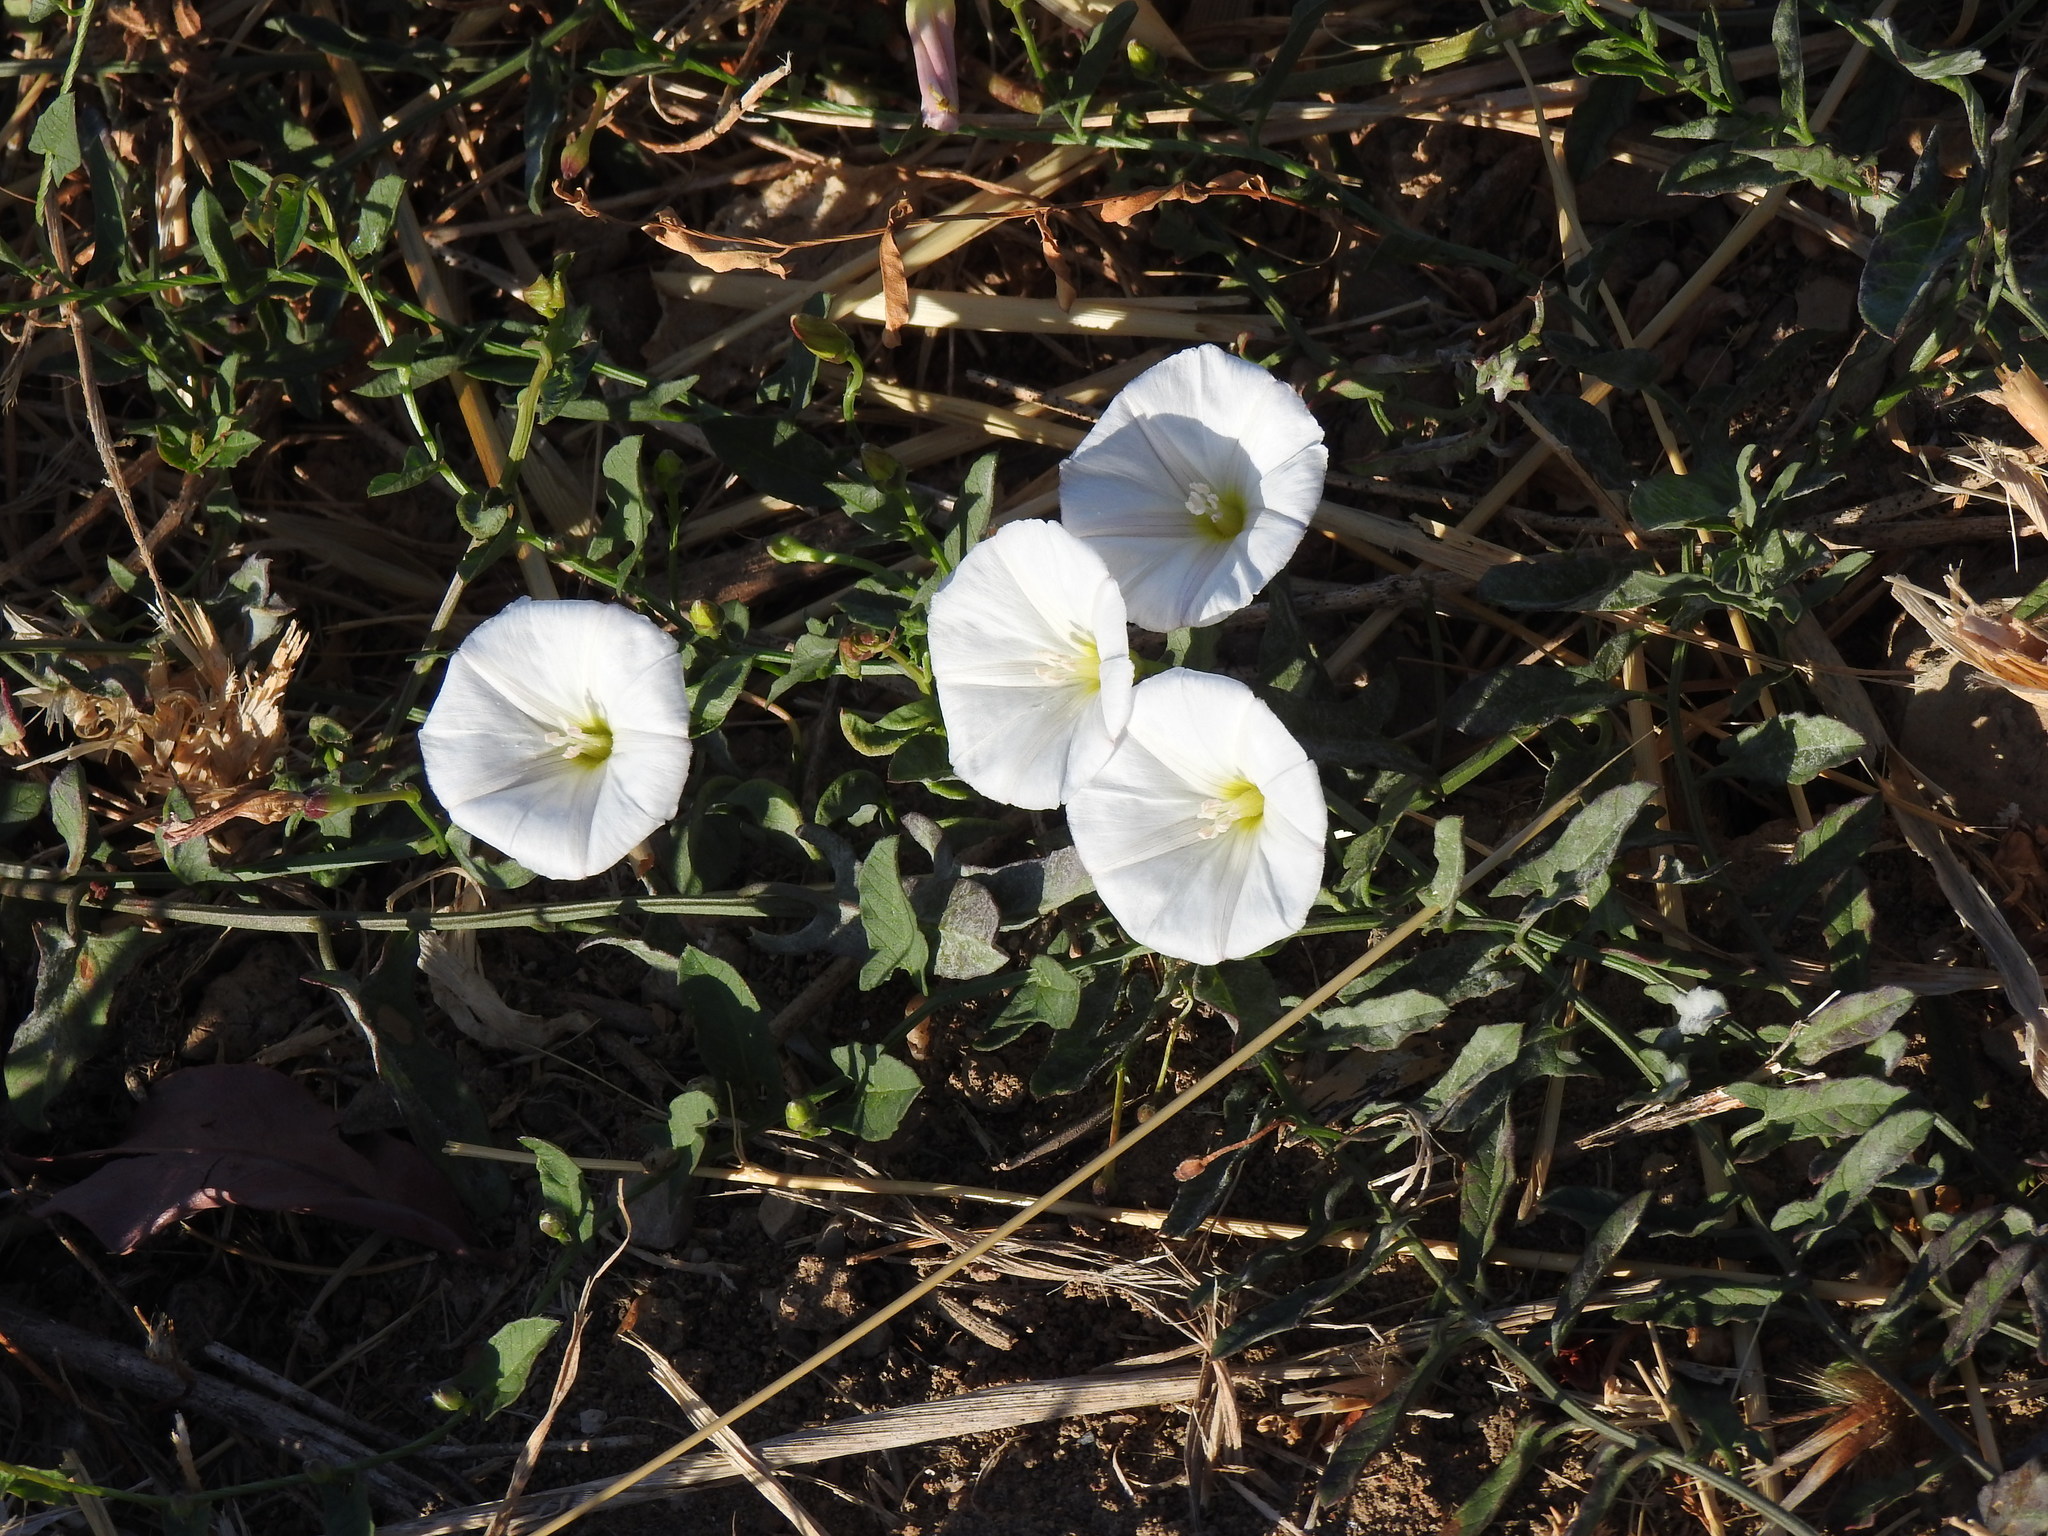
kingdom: Plantae
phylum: Tracheophyta
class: Magnoliopsida
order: Solanales
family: Convolvulaceae
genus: Convolvulus
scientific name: Convolvulus arvensis
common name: Field bindweed
